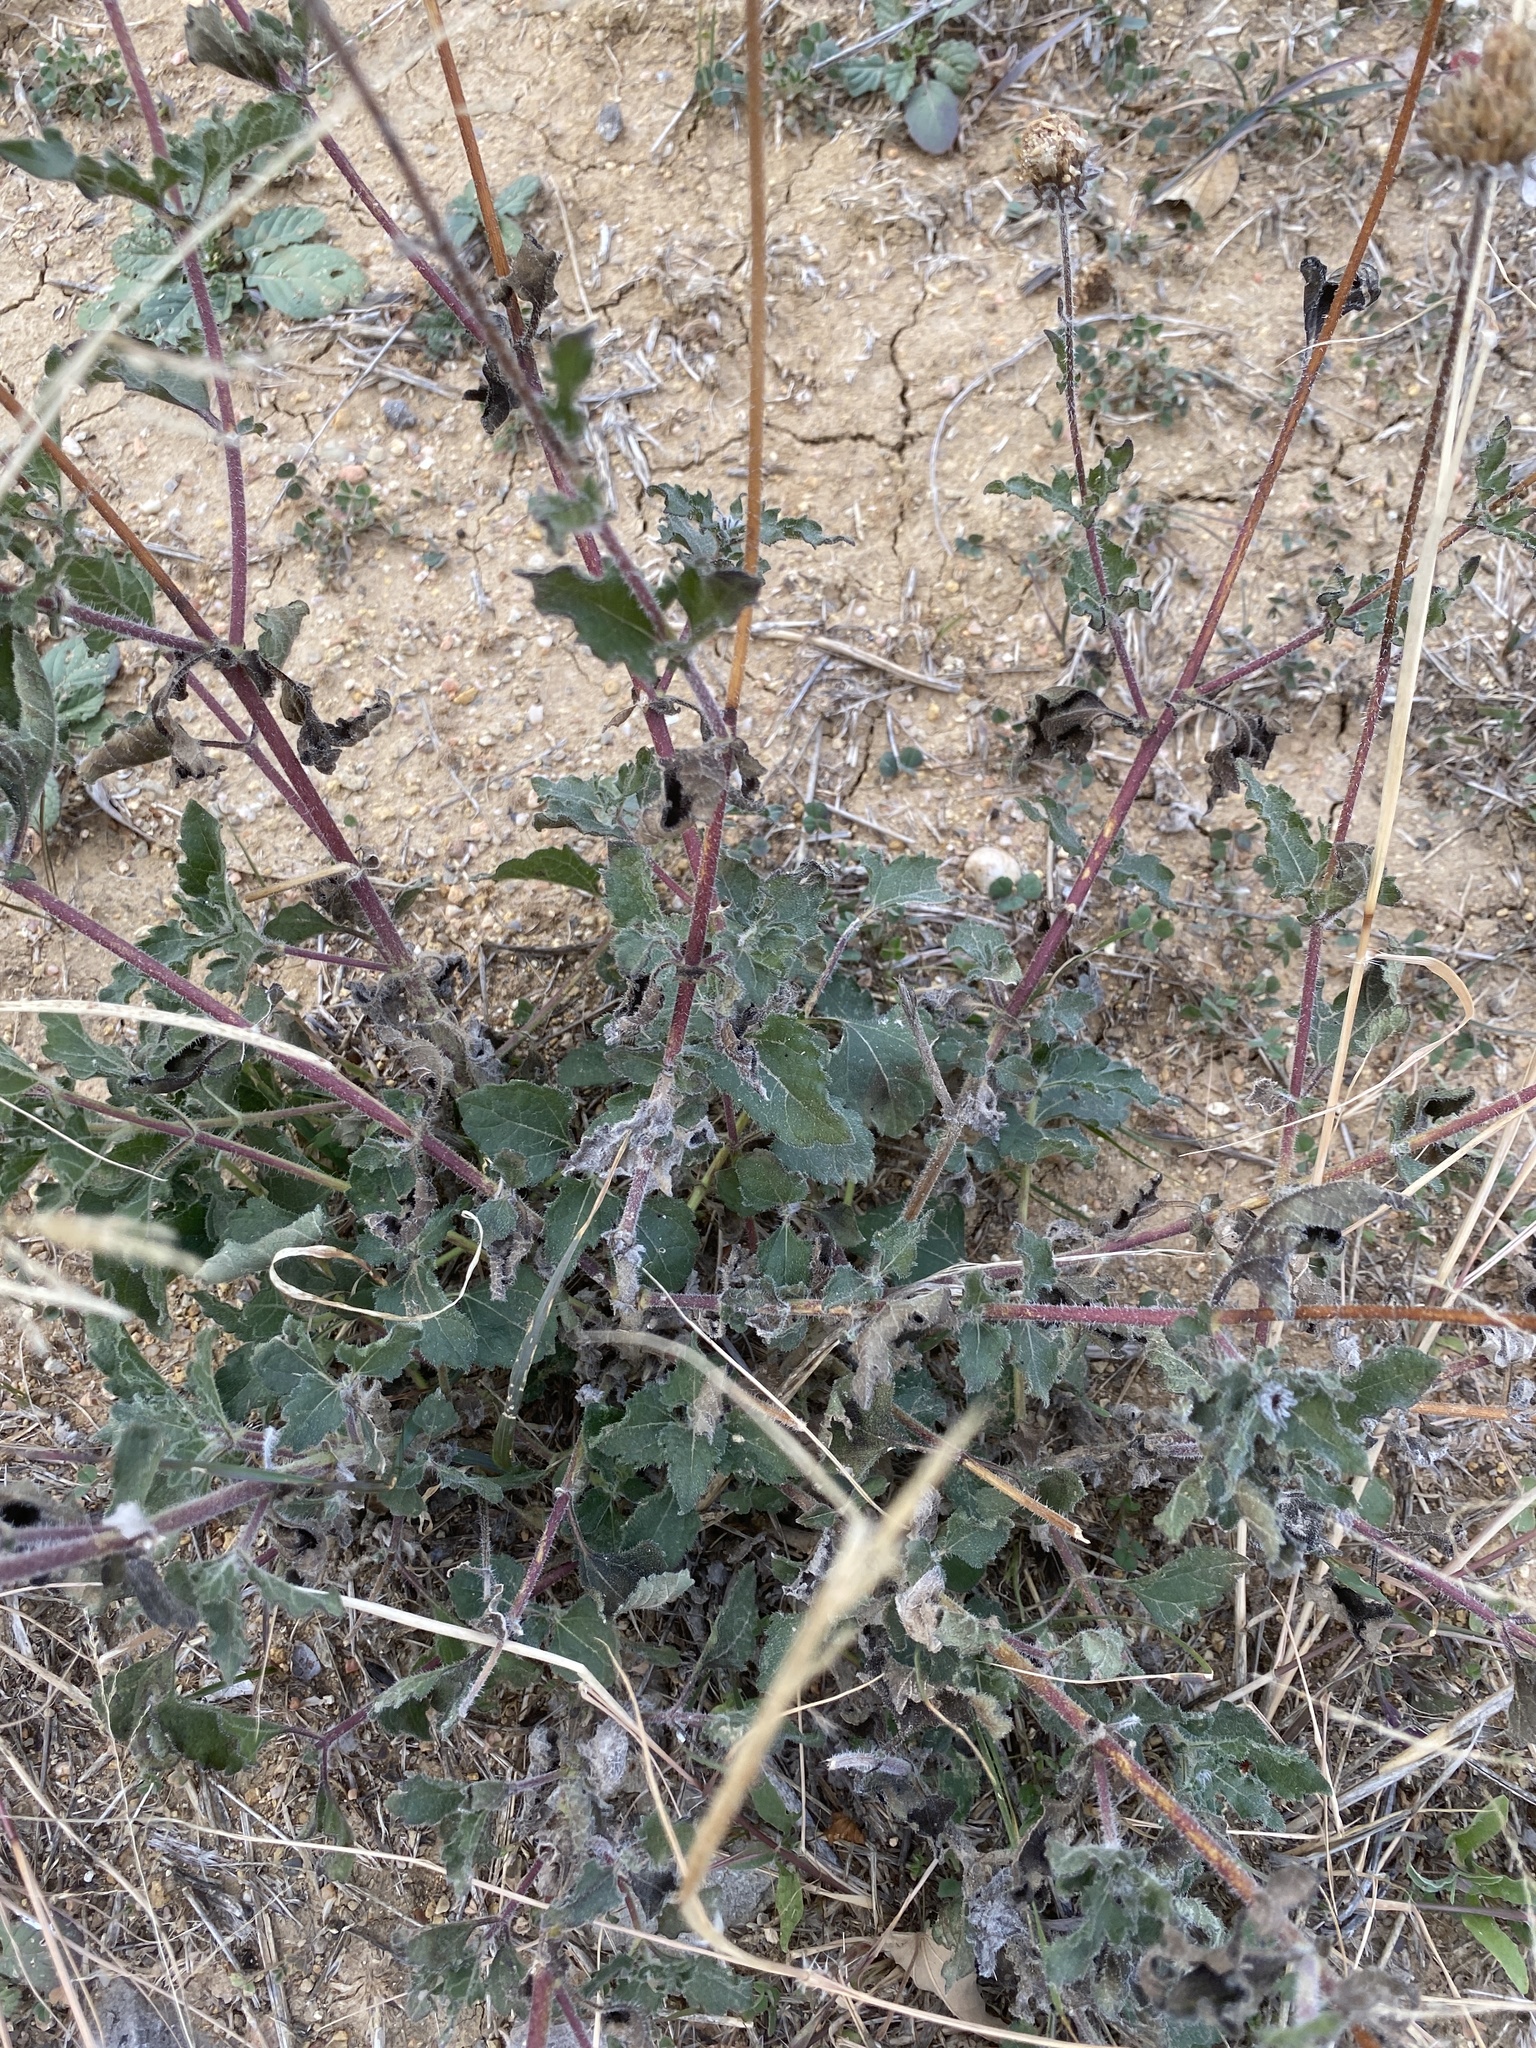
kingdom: Plantae
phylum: Tracheophyta
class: Magnoliopsida
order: Asterales
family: Asteraceae
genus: Simsia
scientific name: Simsia calva
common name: Awnless bush-sunflower
